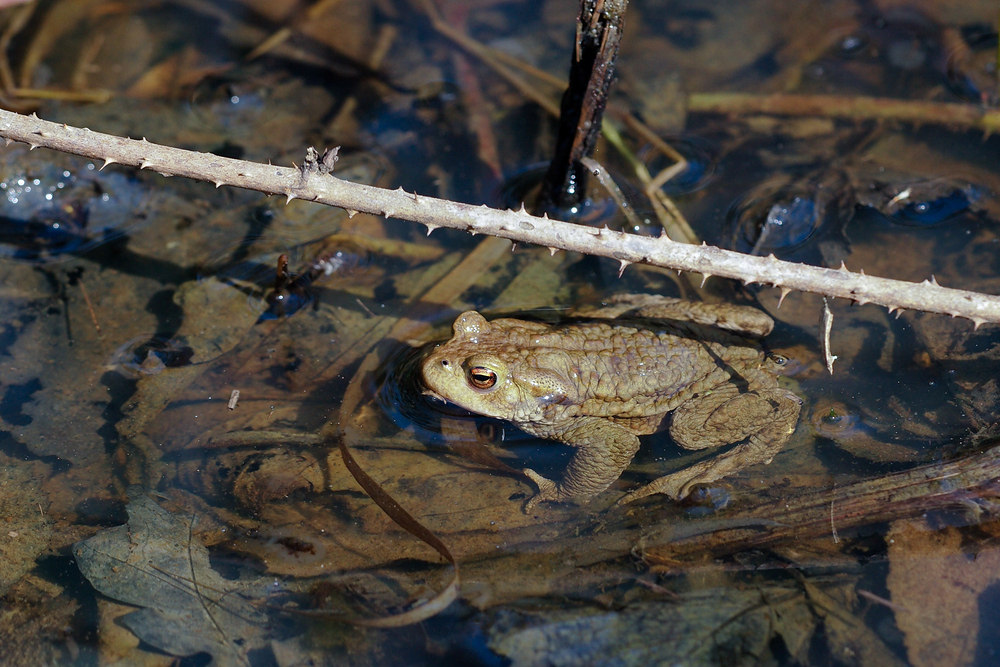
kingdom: Animalia
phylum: Chordata
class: Amphibia
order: Anura
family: Bufonidae
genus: Bufo
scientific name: Bufo bufo
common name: Common toad
